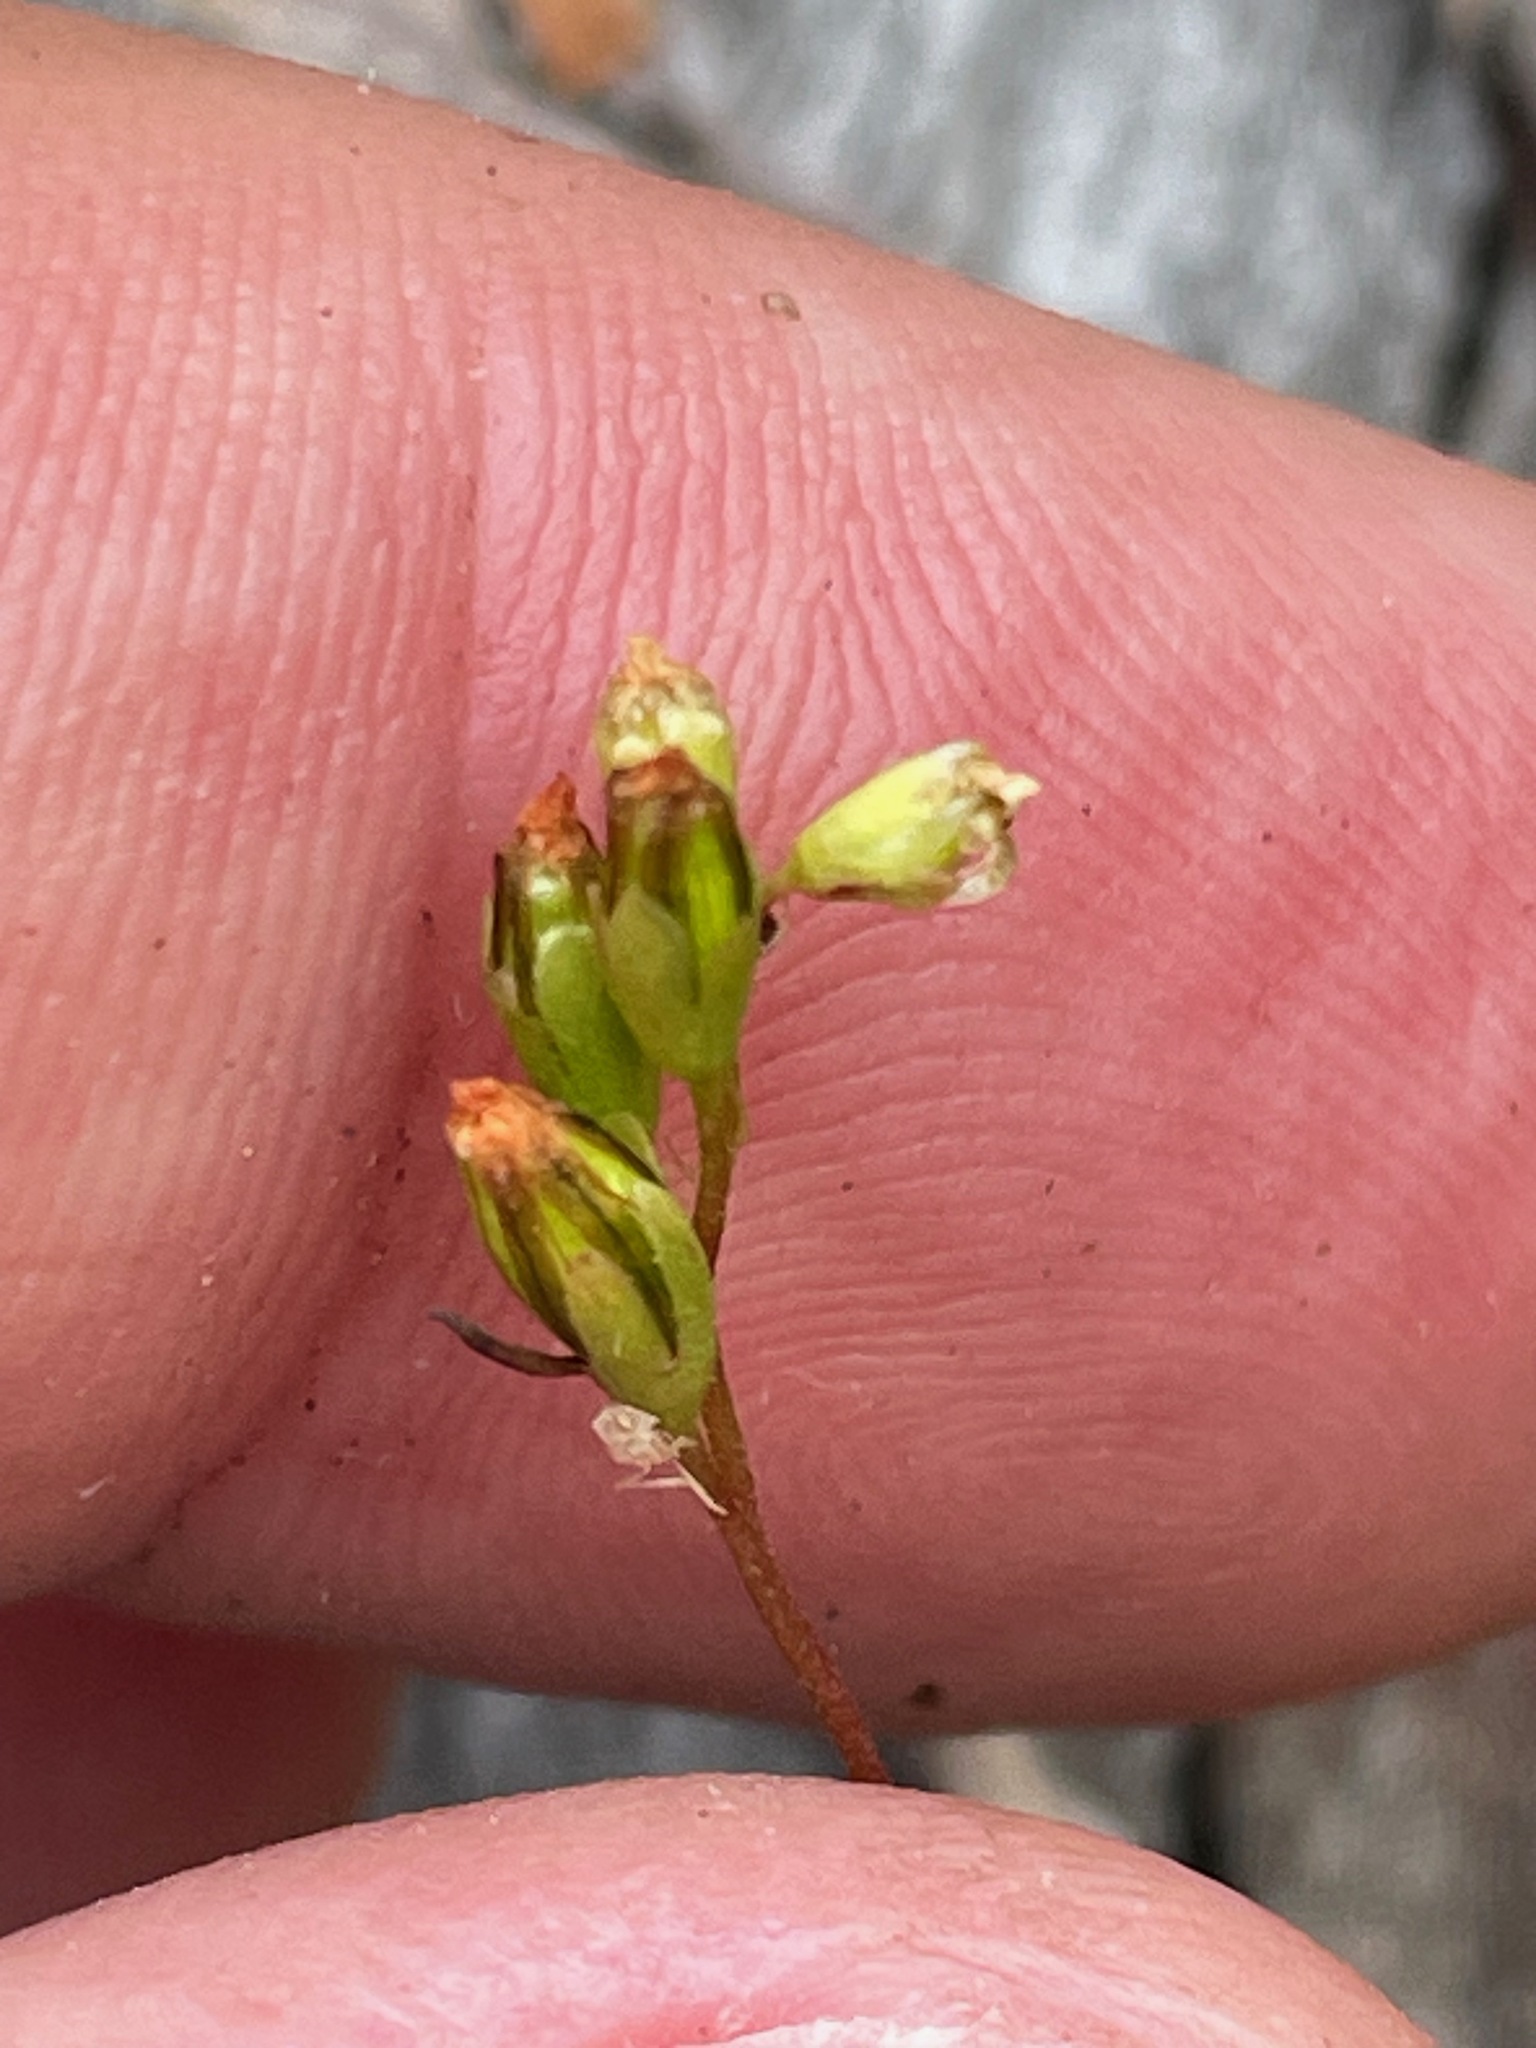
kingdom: Plantae
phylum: Tracheophyta
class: Magnoliopsida
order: Caryophyllales
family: Droseraceae
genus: Drosera
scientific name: Drosera rotundifolia
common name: Round-leaved sundew
